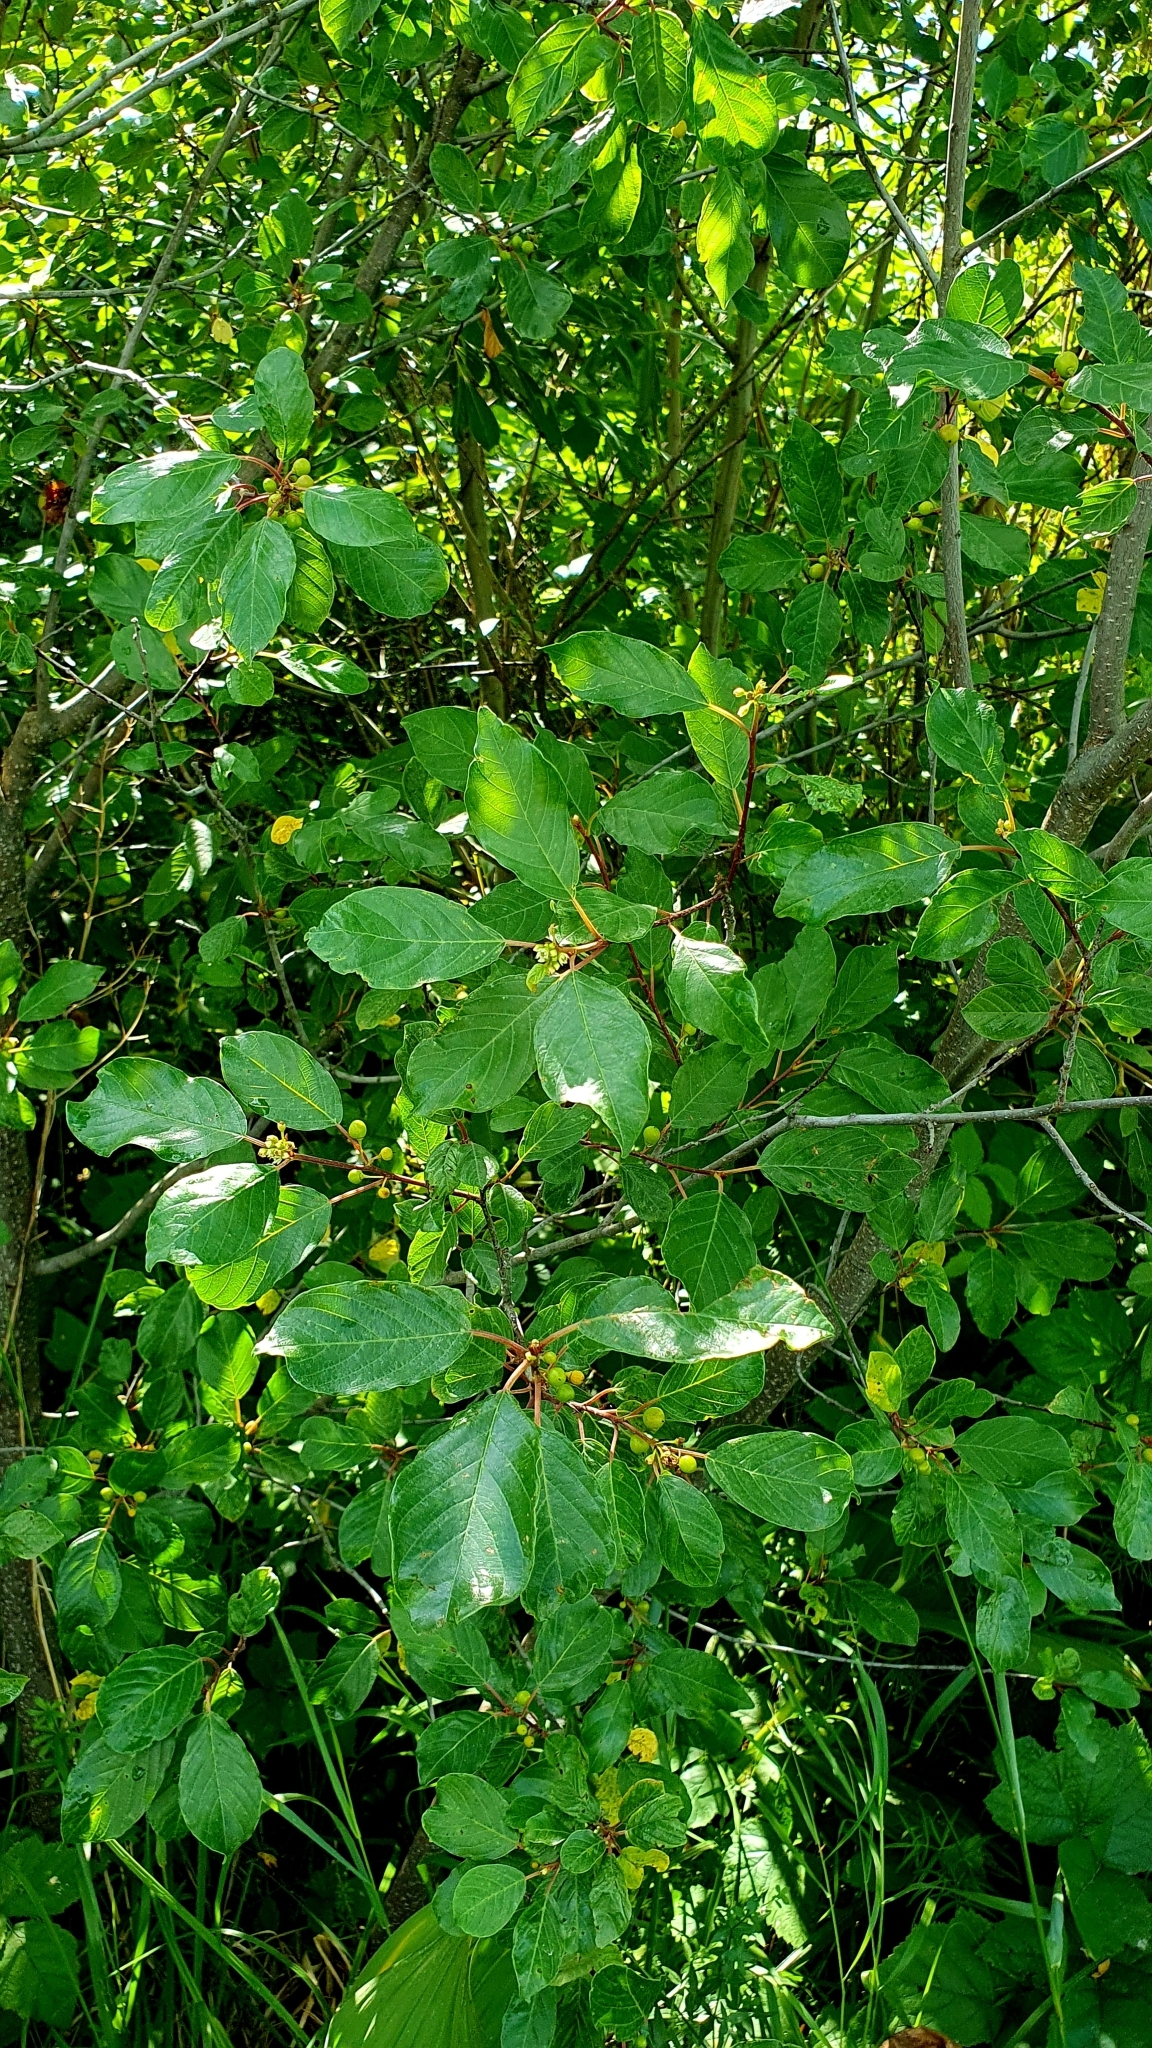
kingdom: Plantae
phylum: Tracheophyta
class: Magnoliopsida
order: Rosales
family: Rhamnaceae
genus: Frangula
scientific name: Frangula alnus
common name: Alder buckthorn
